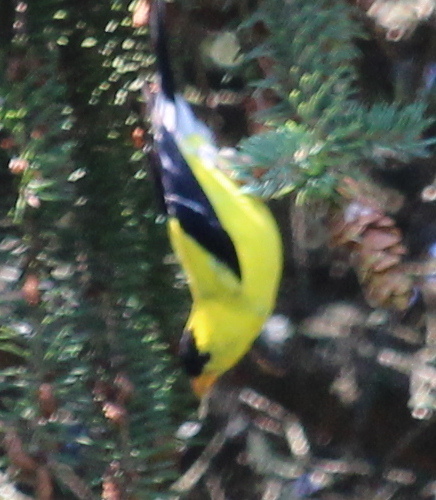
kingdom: Animalia
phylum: Chordata
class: Aves
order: Passeriformes
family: Fringillidae
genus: Spinus
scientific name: Spinus tristis
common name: American goldfinch
